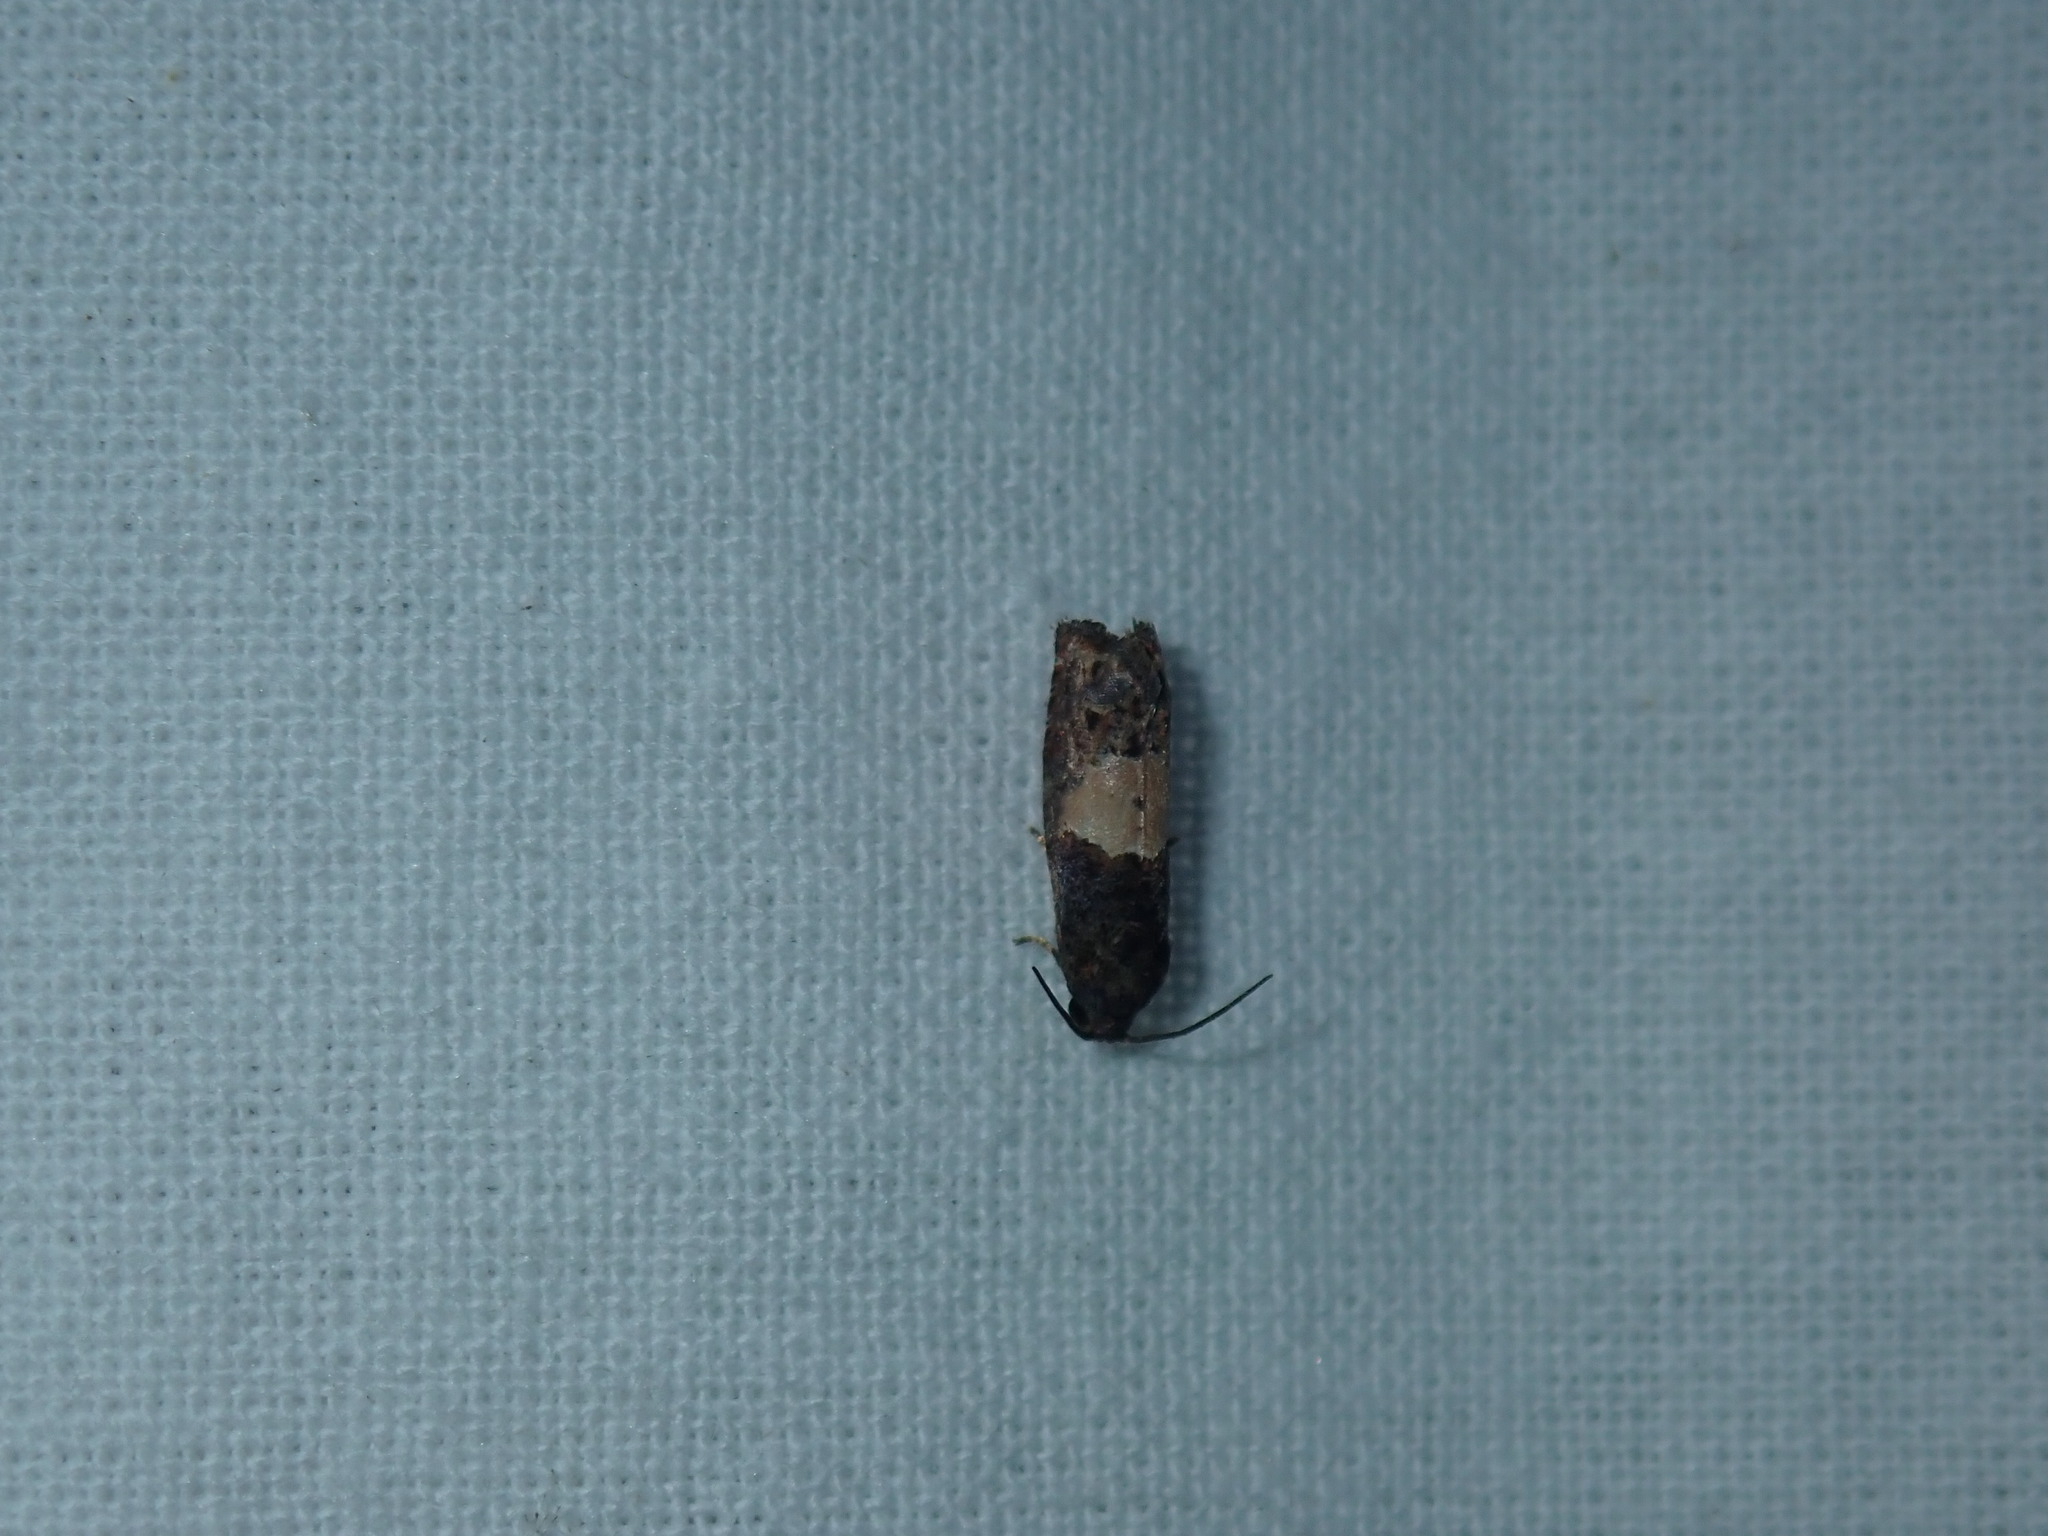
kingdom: Animalia
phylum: Arthropoda
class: Insecta
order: Lepidoptera
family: Tortricidae
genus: Epiblema
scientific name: Epiblema glenni
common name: Glenn's epiblema
